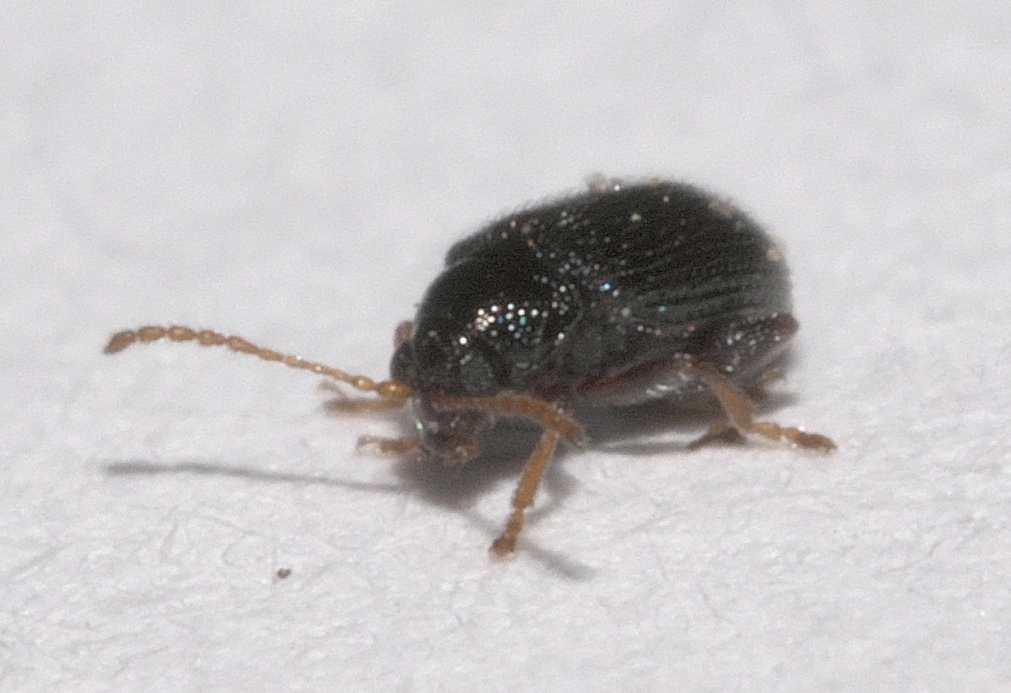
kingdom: Animalia
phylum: Arthropoda
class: Insecta
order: Coleoptera
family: Chrysomelidae
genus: Epitrix
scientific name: Epitrix cucumeris
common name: Potato flea beetle
